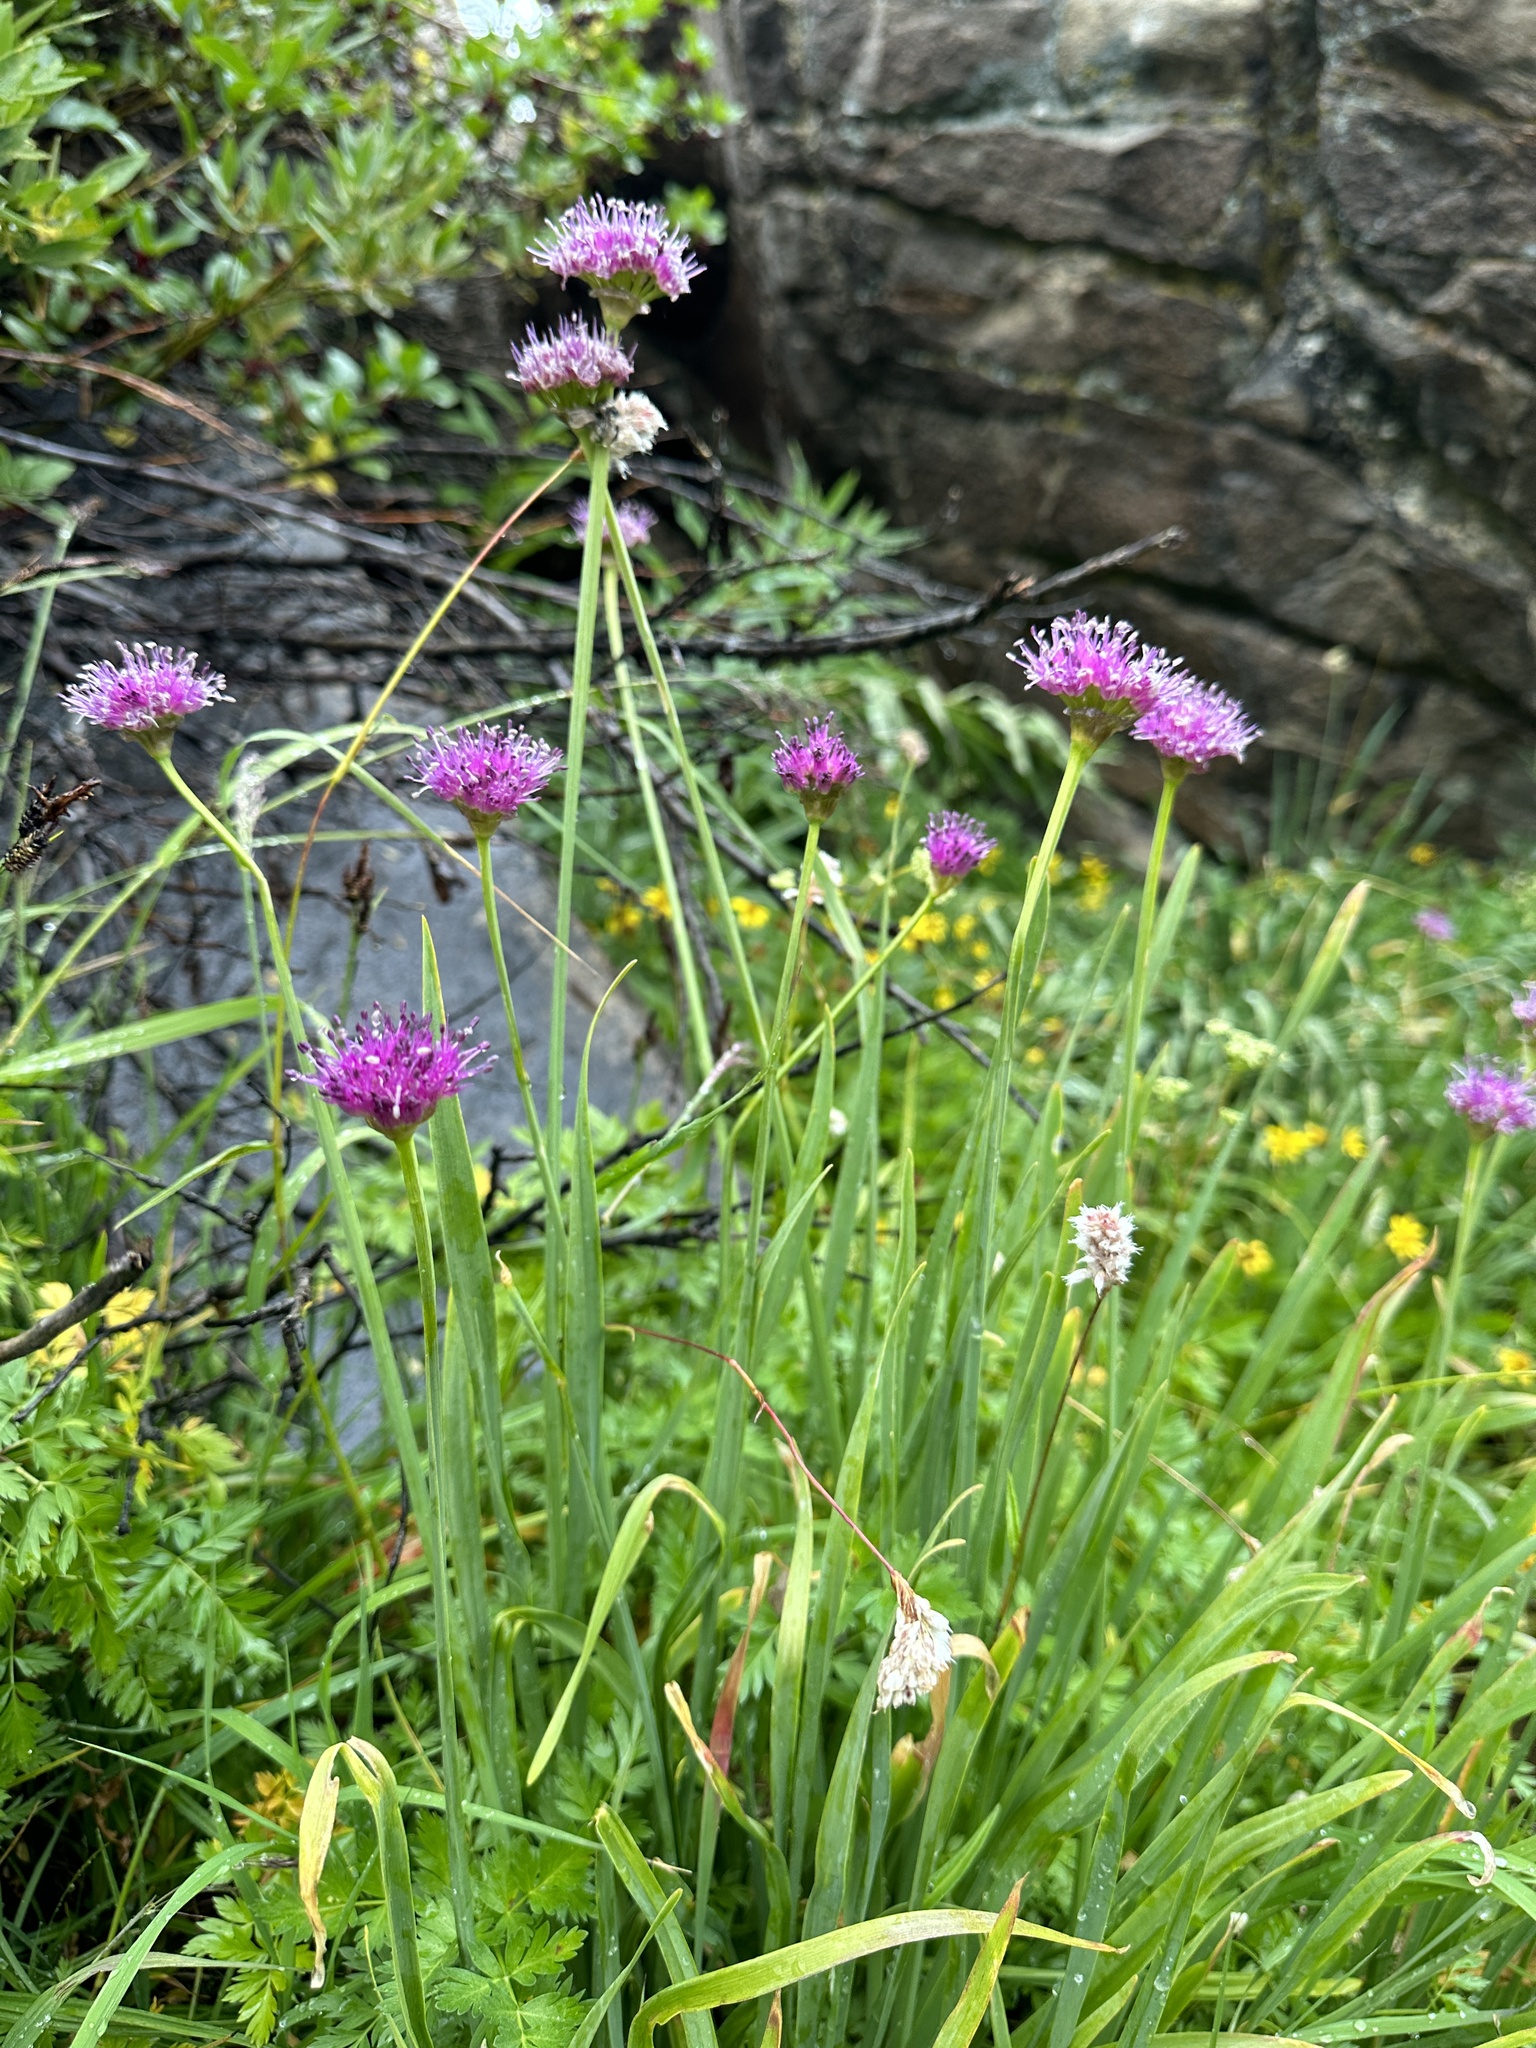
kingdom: Plantae
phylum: Tracheophyta
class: Liliopsida
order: Asparagales
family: Amaryllidaceae
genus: Allium
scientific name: Allium validum
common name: Pacific mountain onion
